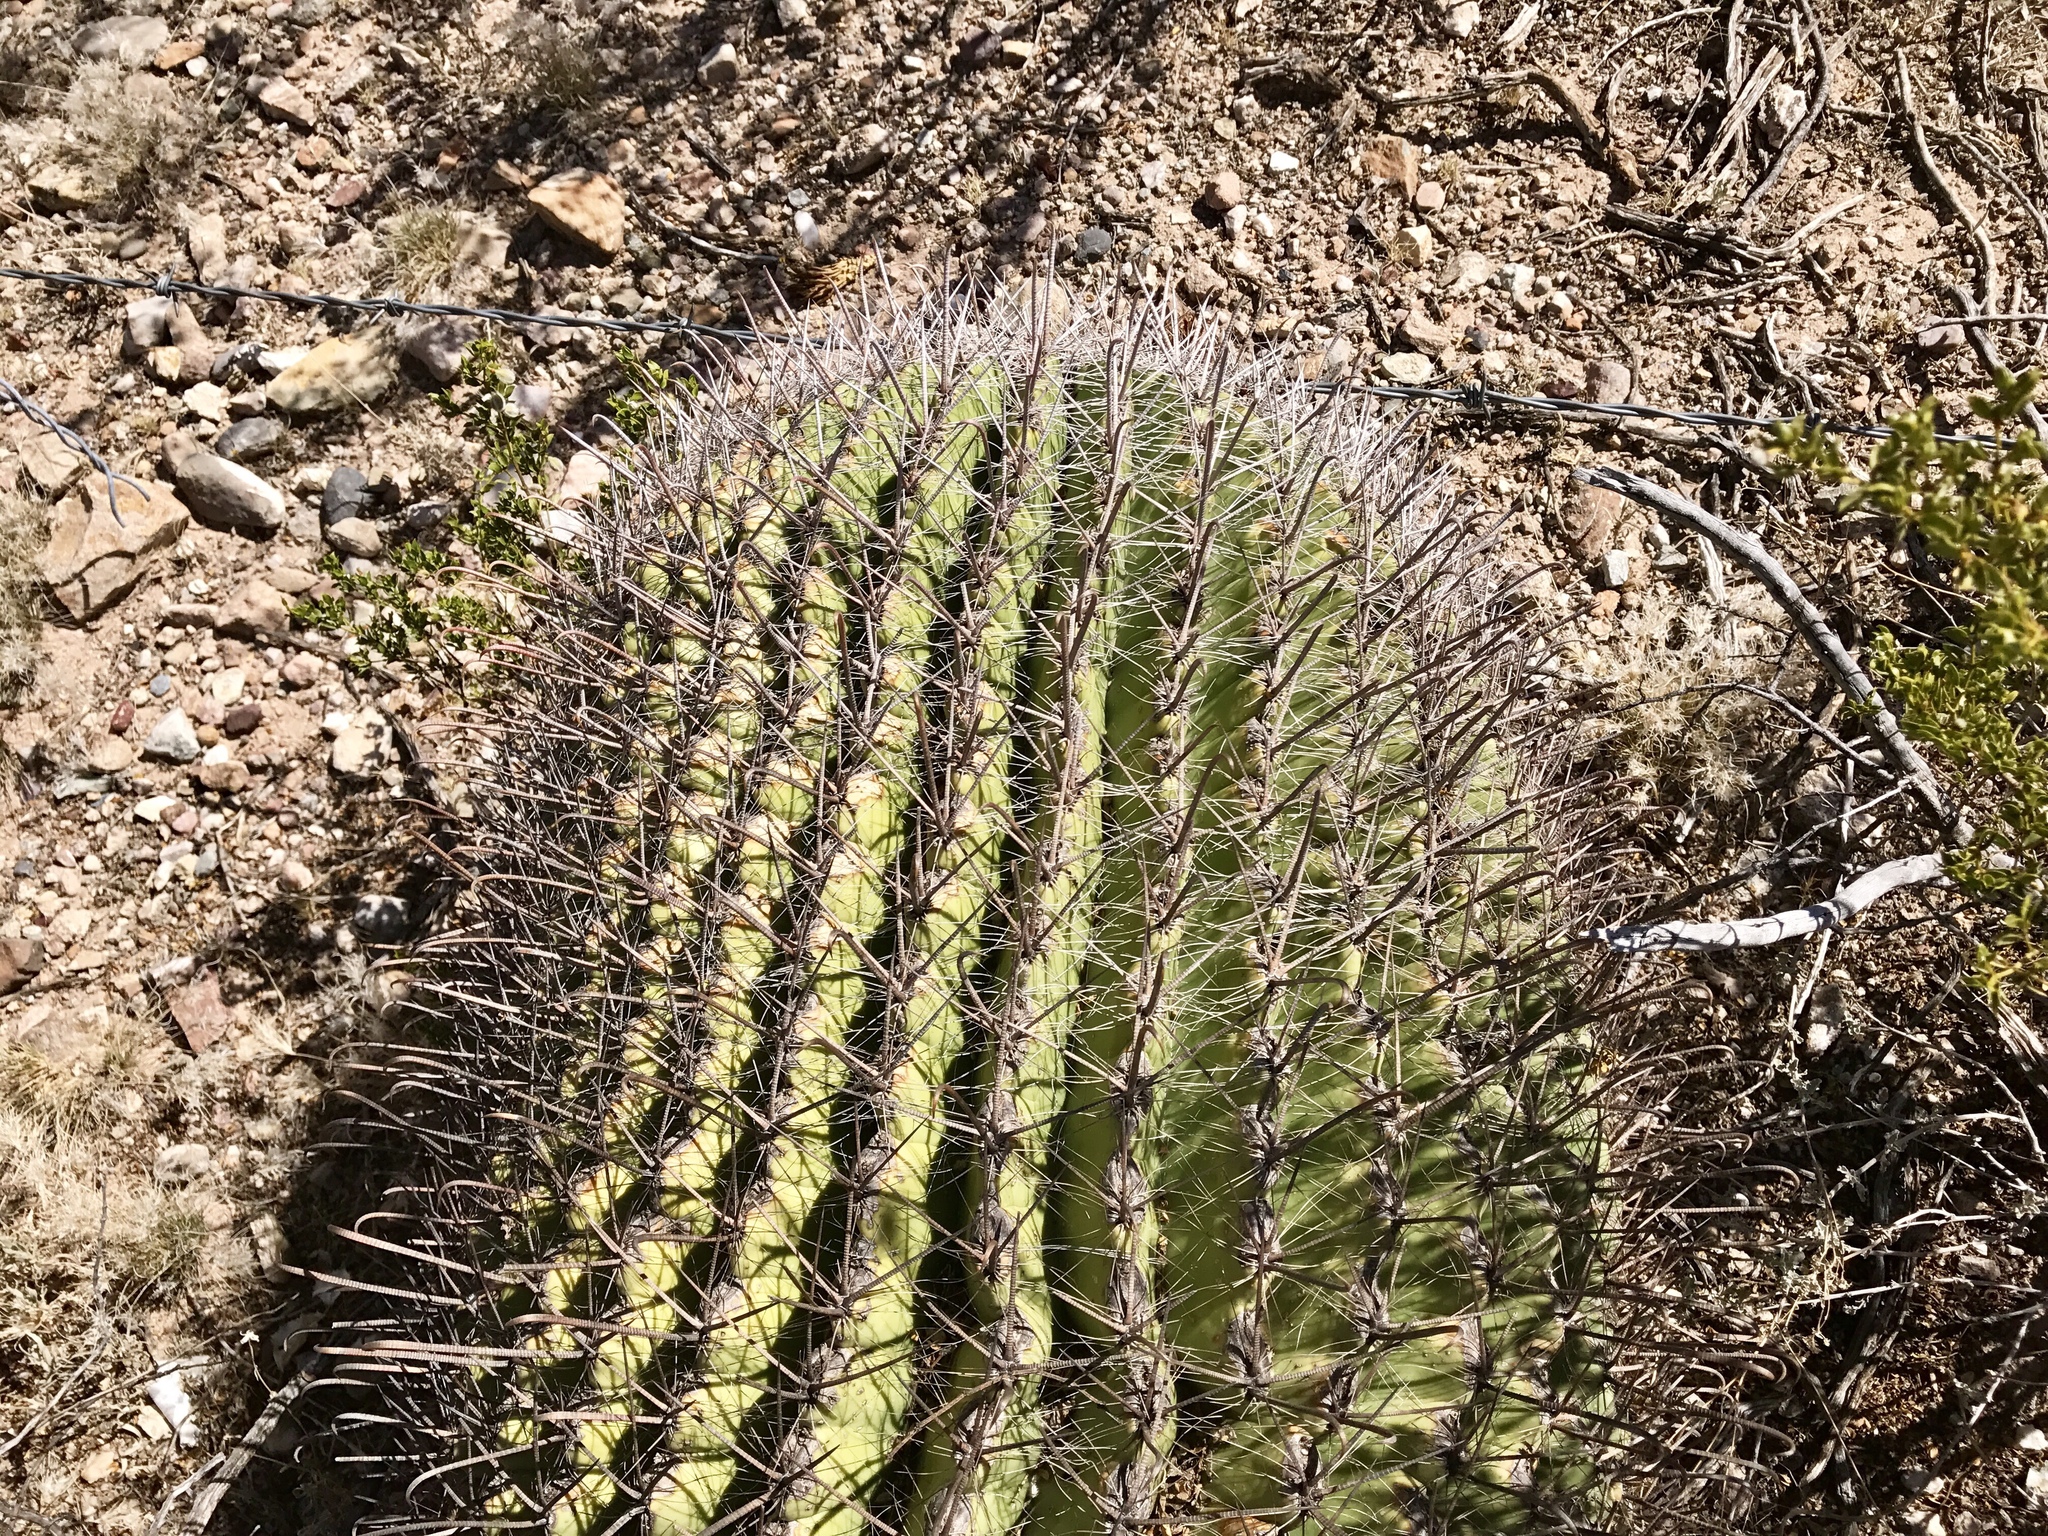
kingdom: Plantae
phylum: Tracheophyta
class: Magnoliopsida
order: Caryophyllales
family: Cactaceae
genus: Ferocactus
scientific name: Ferocactus wislizeni
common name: Candy barrel cactus
